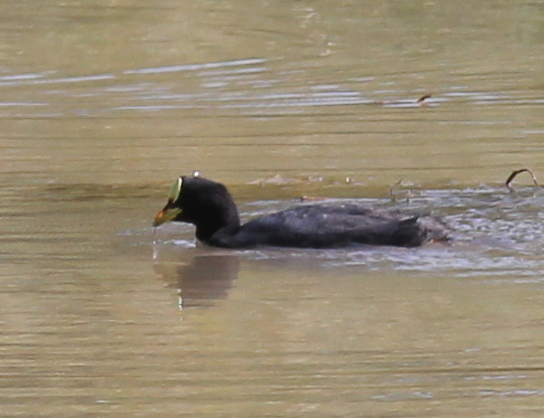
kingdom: Animalia
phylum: Chordata
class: Aves
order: Gruiformes
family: Rallidae
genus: Fulica
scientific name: Fulica armillata
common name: Red-gartered coot
